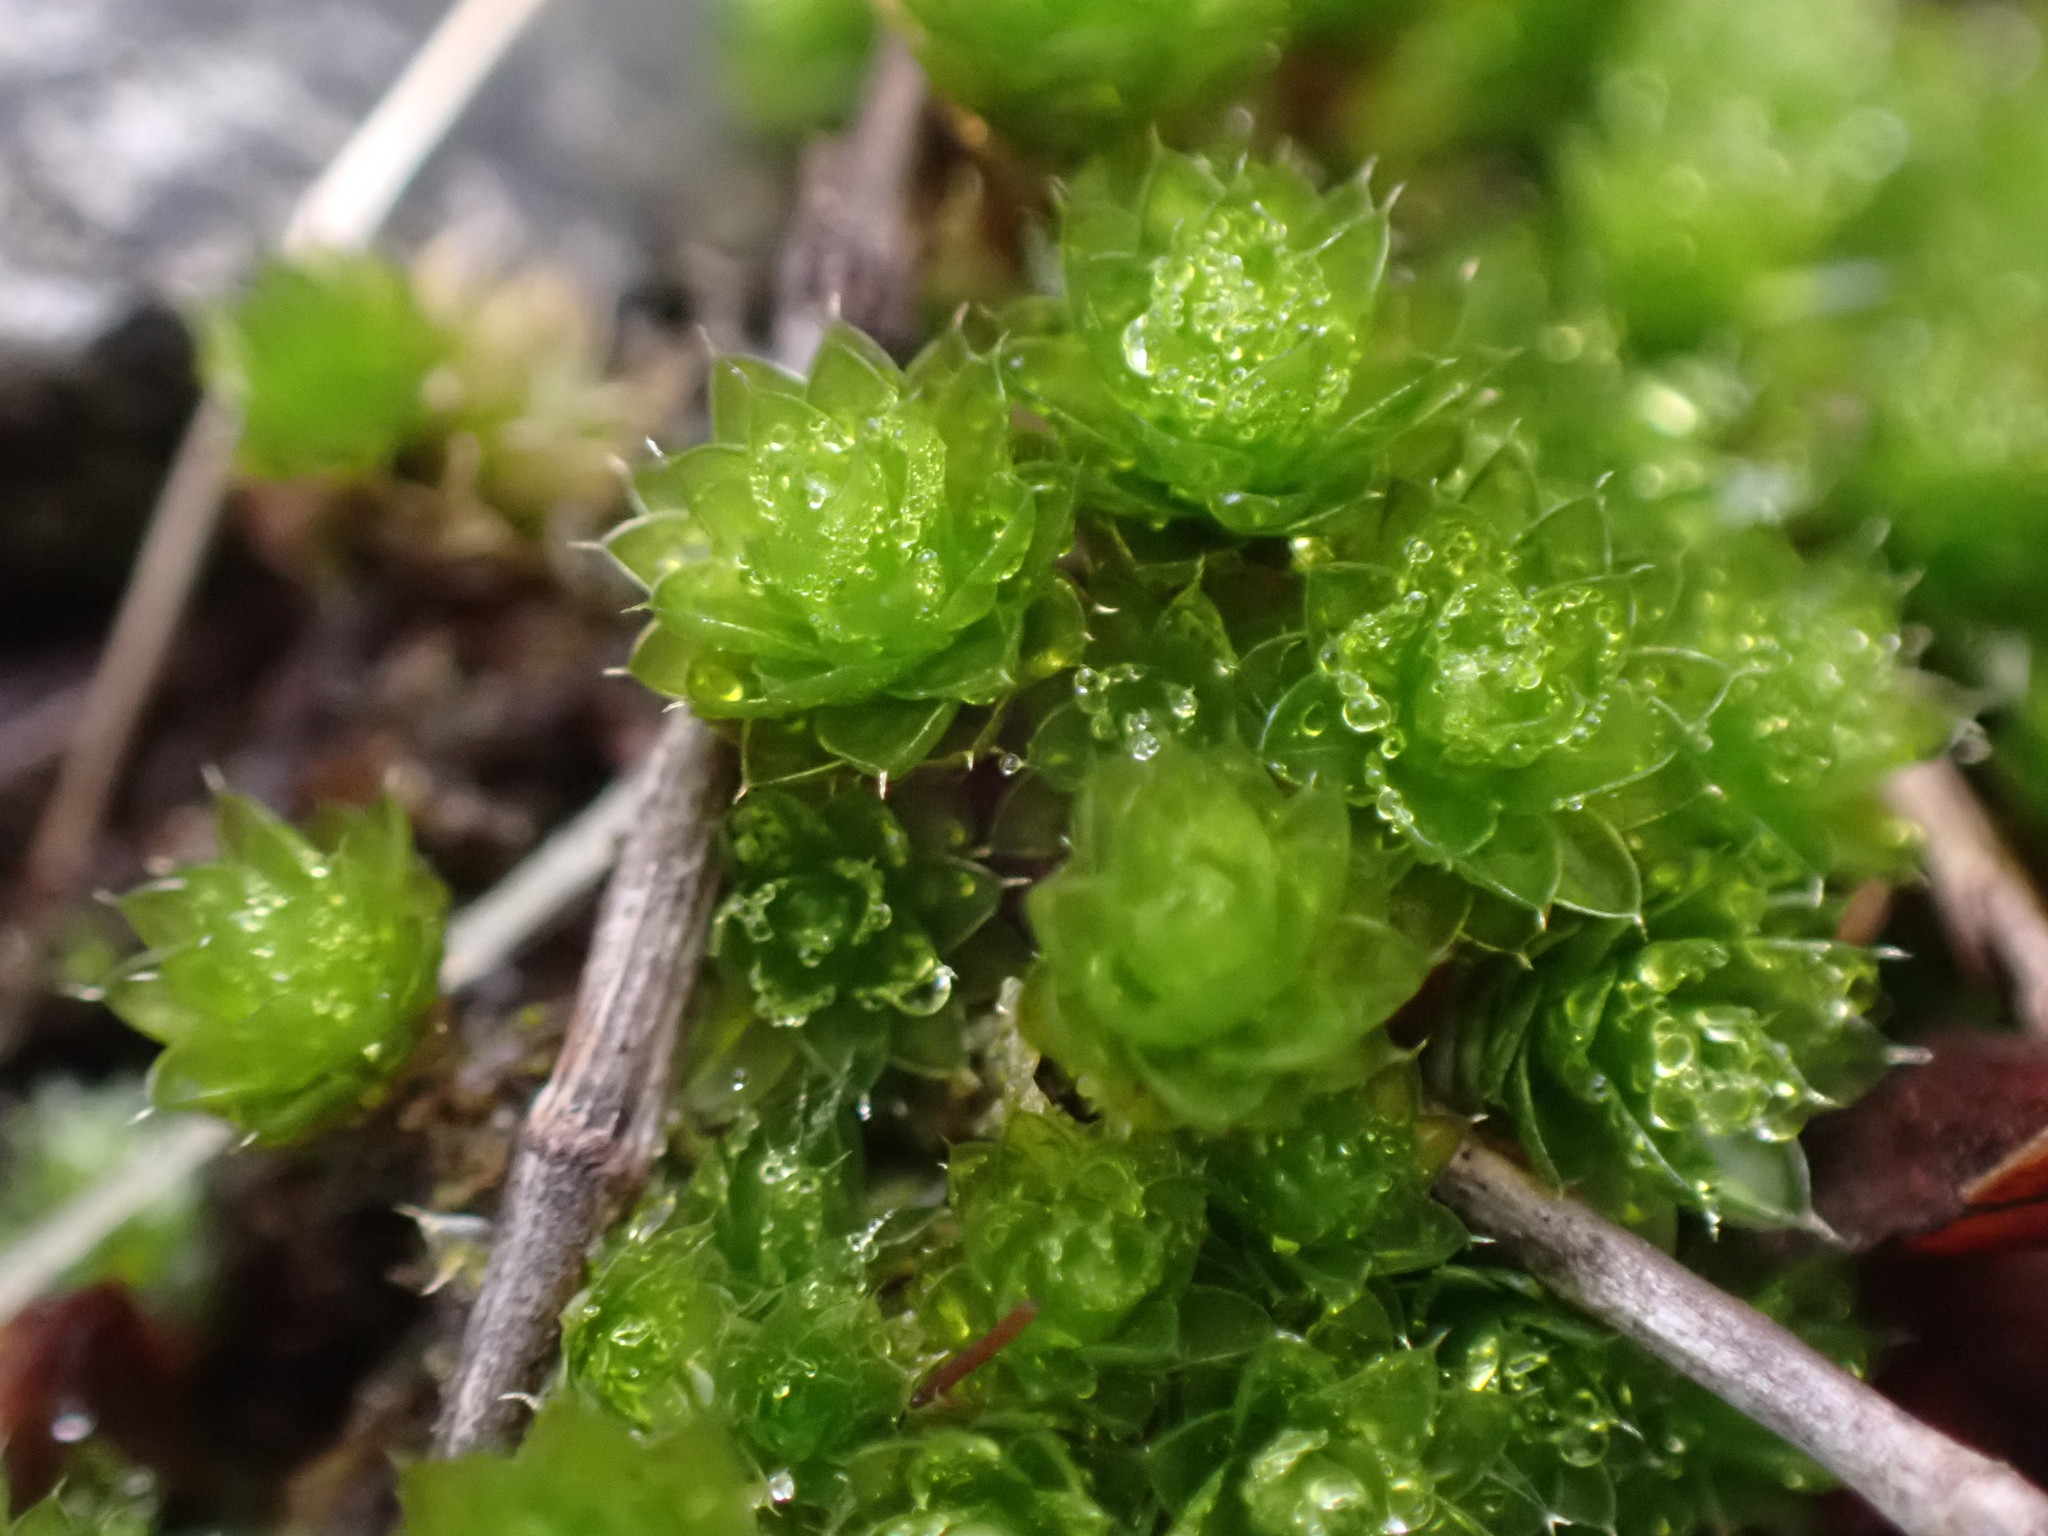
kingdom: Plantae
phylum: Bryophyta
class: Bryopsida
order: Bryales
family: Bryaceae
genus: Rosulabryum
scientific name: Rosulabryum capillare
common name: Capillary thread-moss
